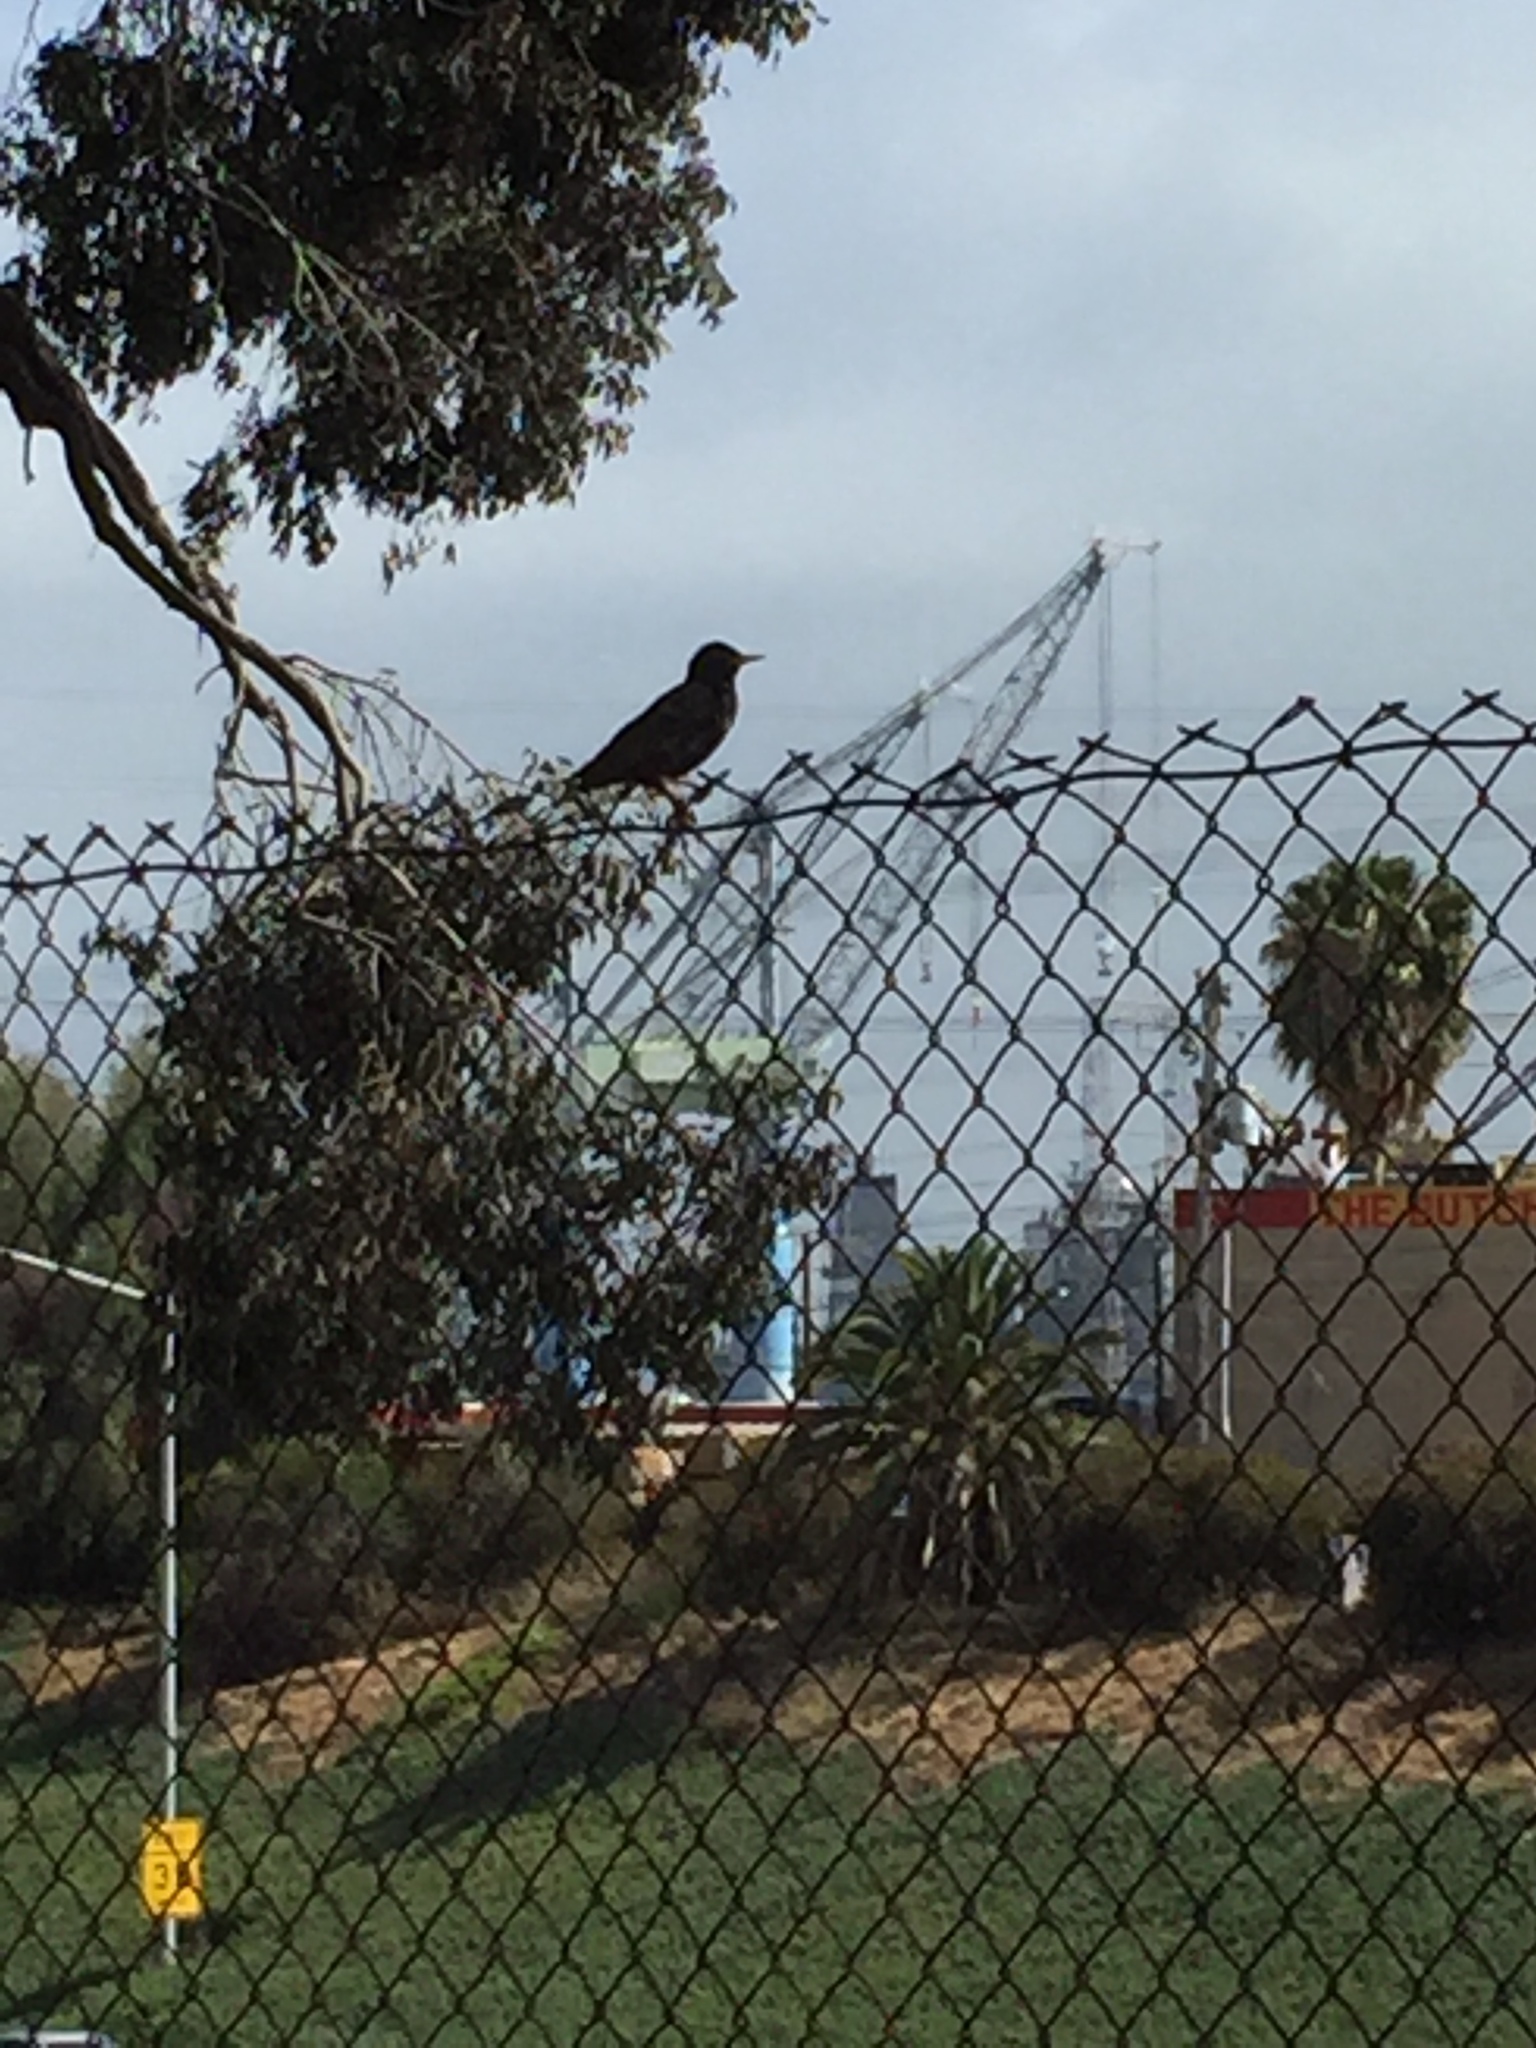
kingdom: Animalia
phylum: Chordata
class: Aves
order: Passeriformes
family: Sturnidae
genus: Sturnus
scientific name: Sturnus vulgaris
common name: Common starling
